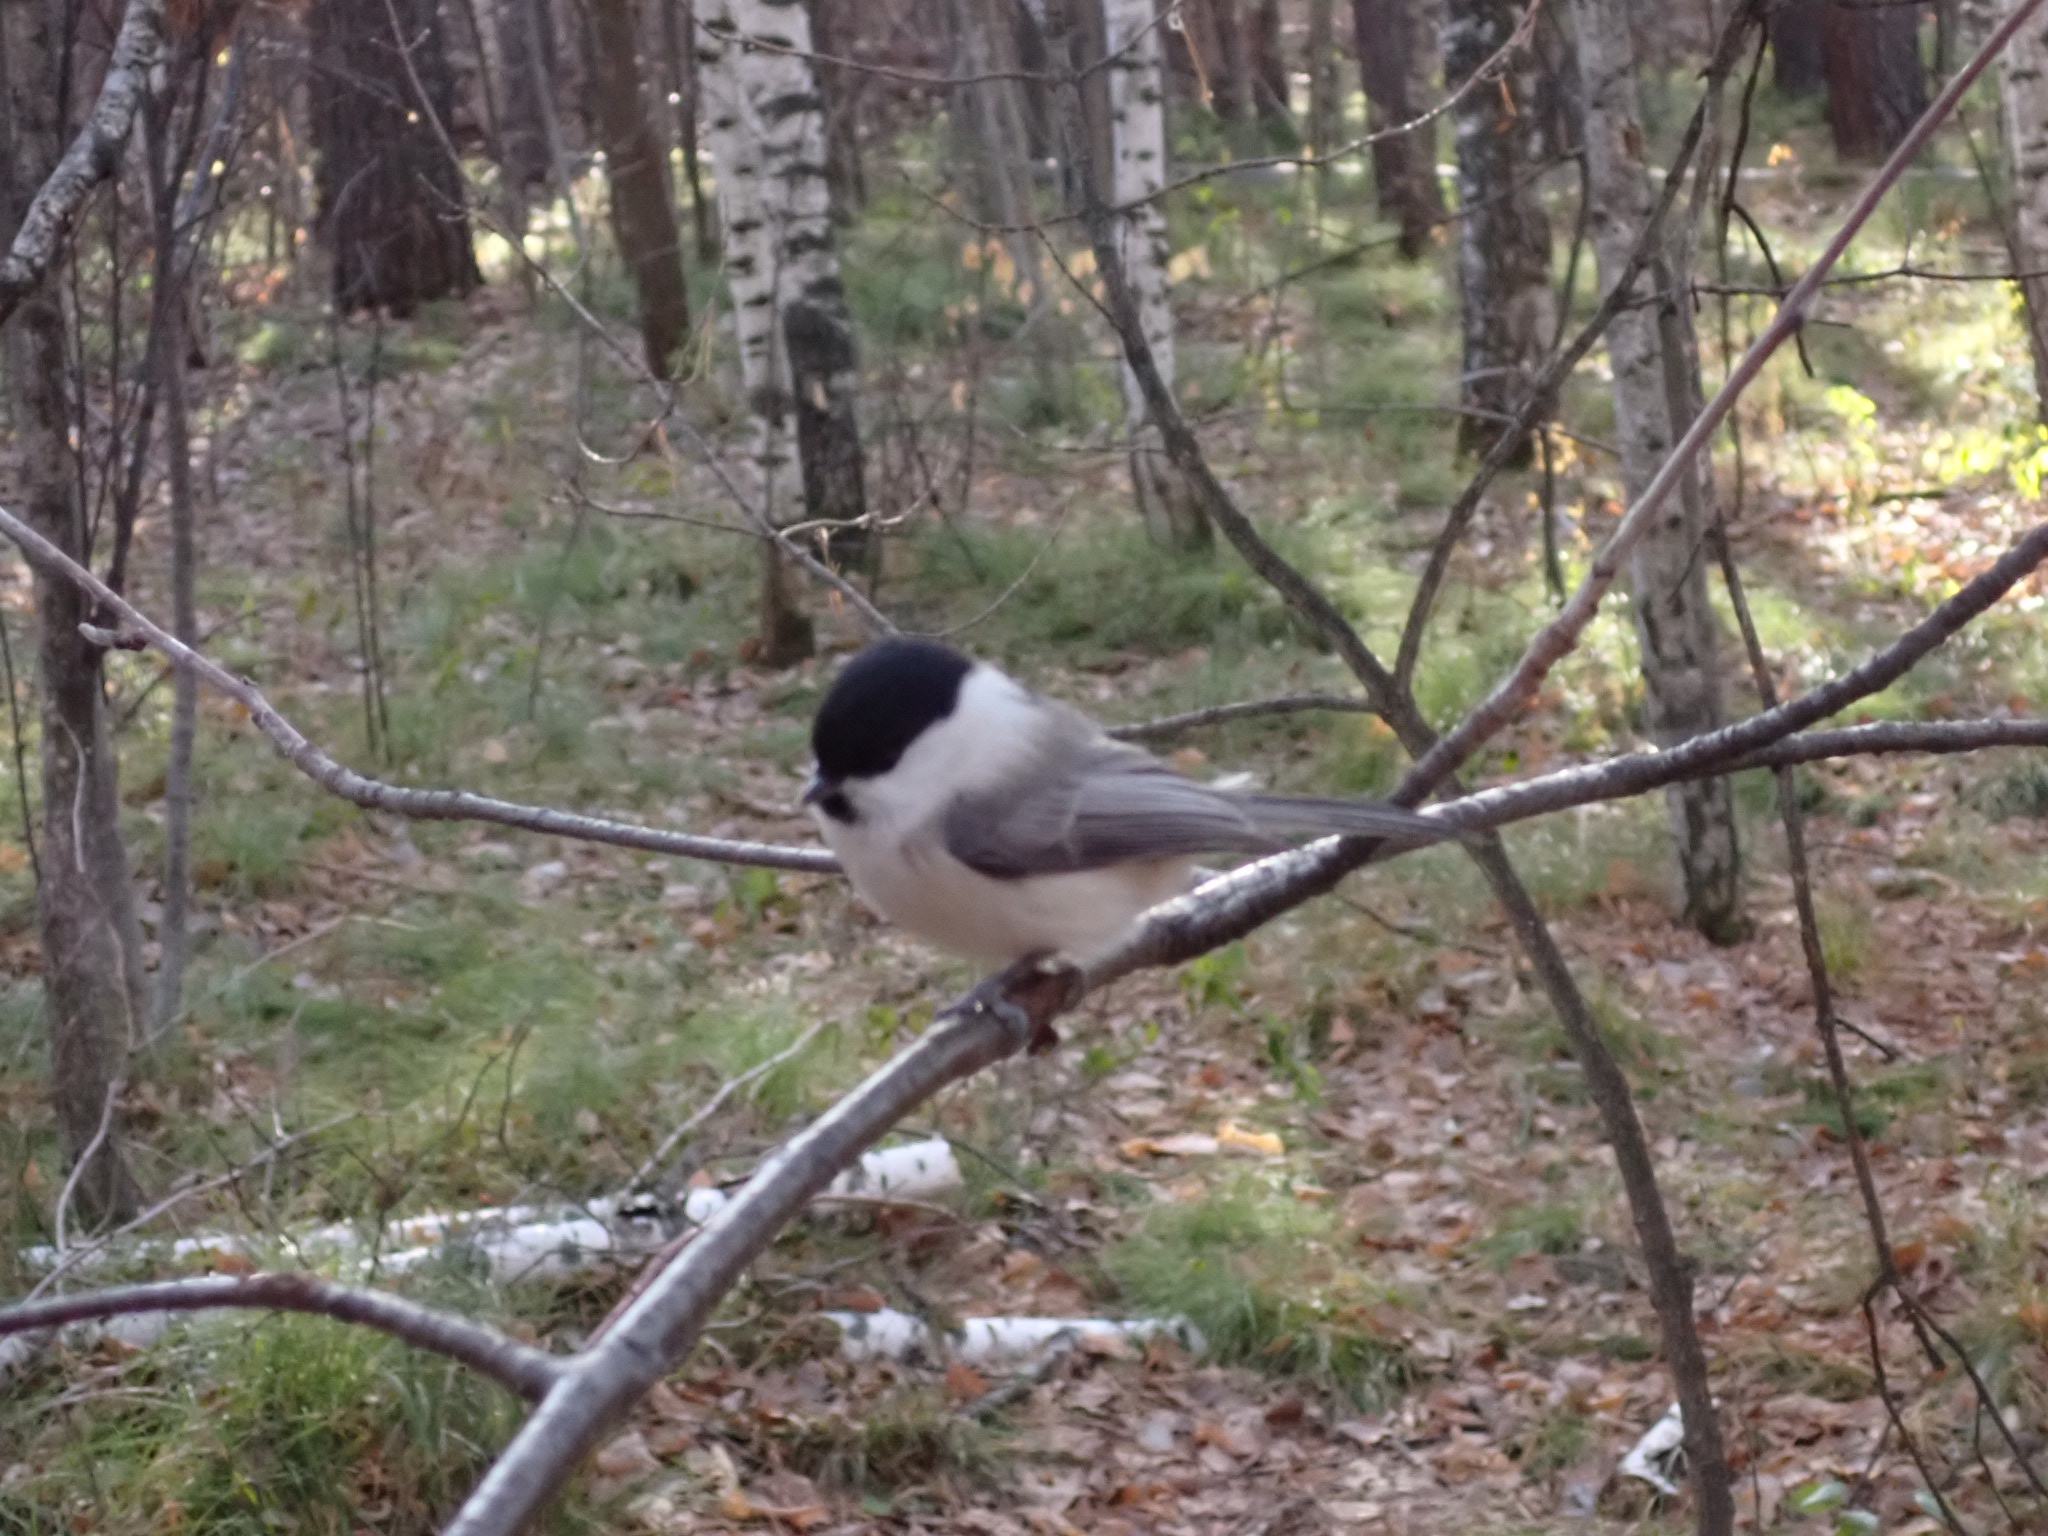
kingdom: Animalia
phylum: Chordata
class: Aves
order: Passeriformes
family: Paridae
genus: Poecile
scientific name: Poecile montanus
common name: Willow tit
